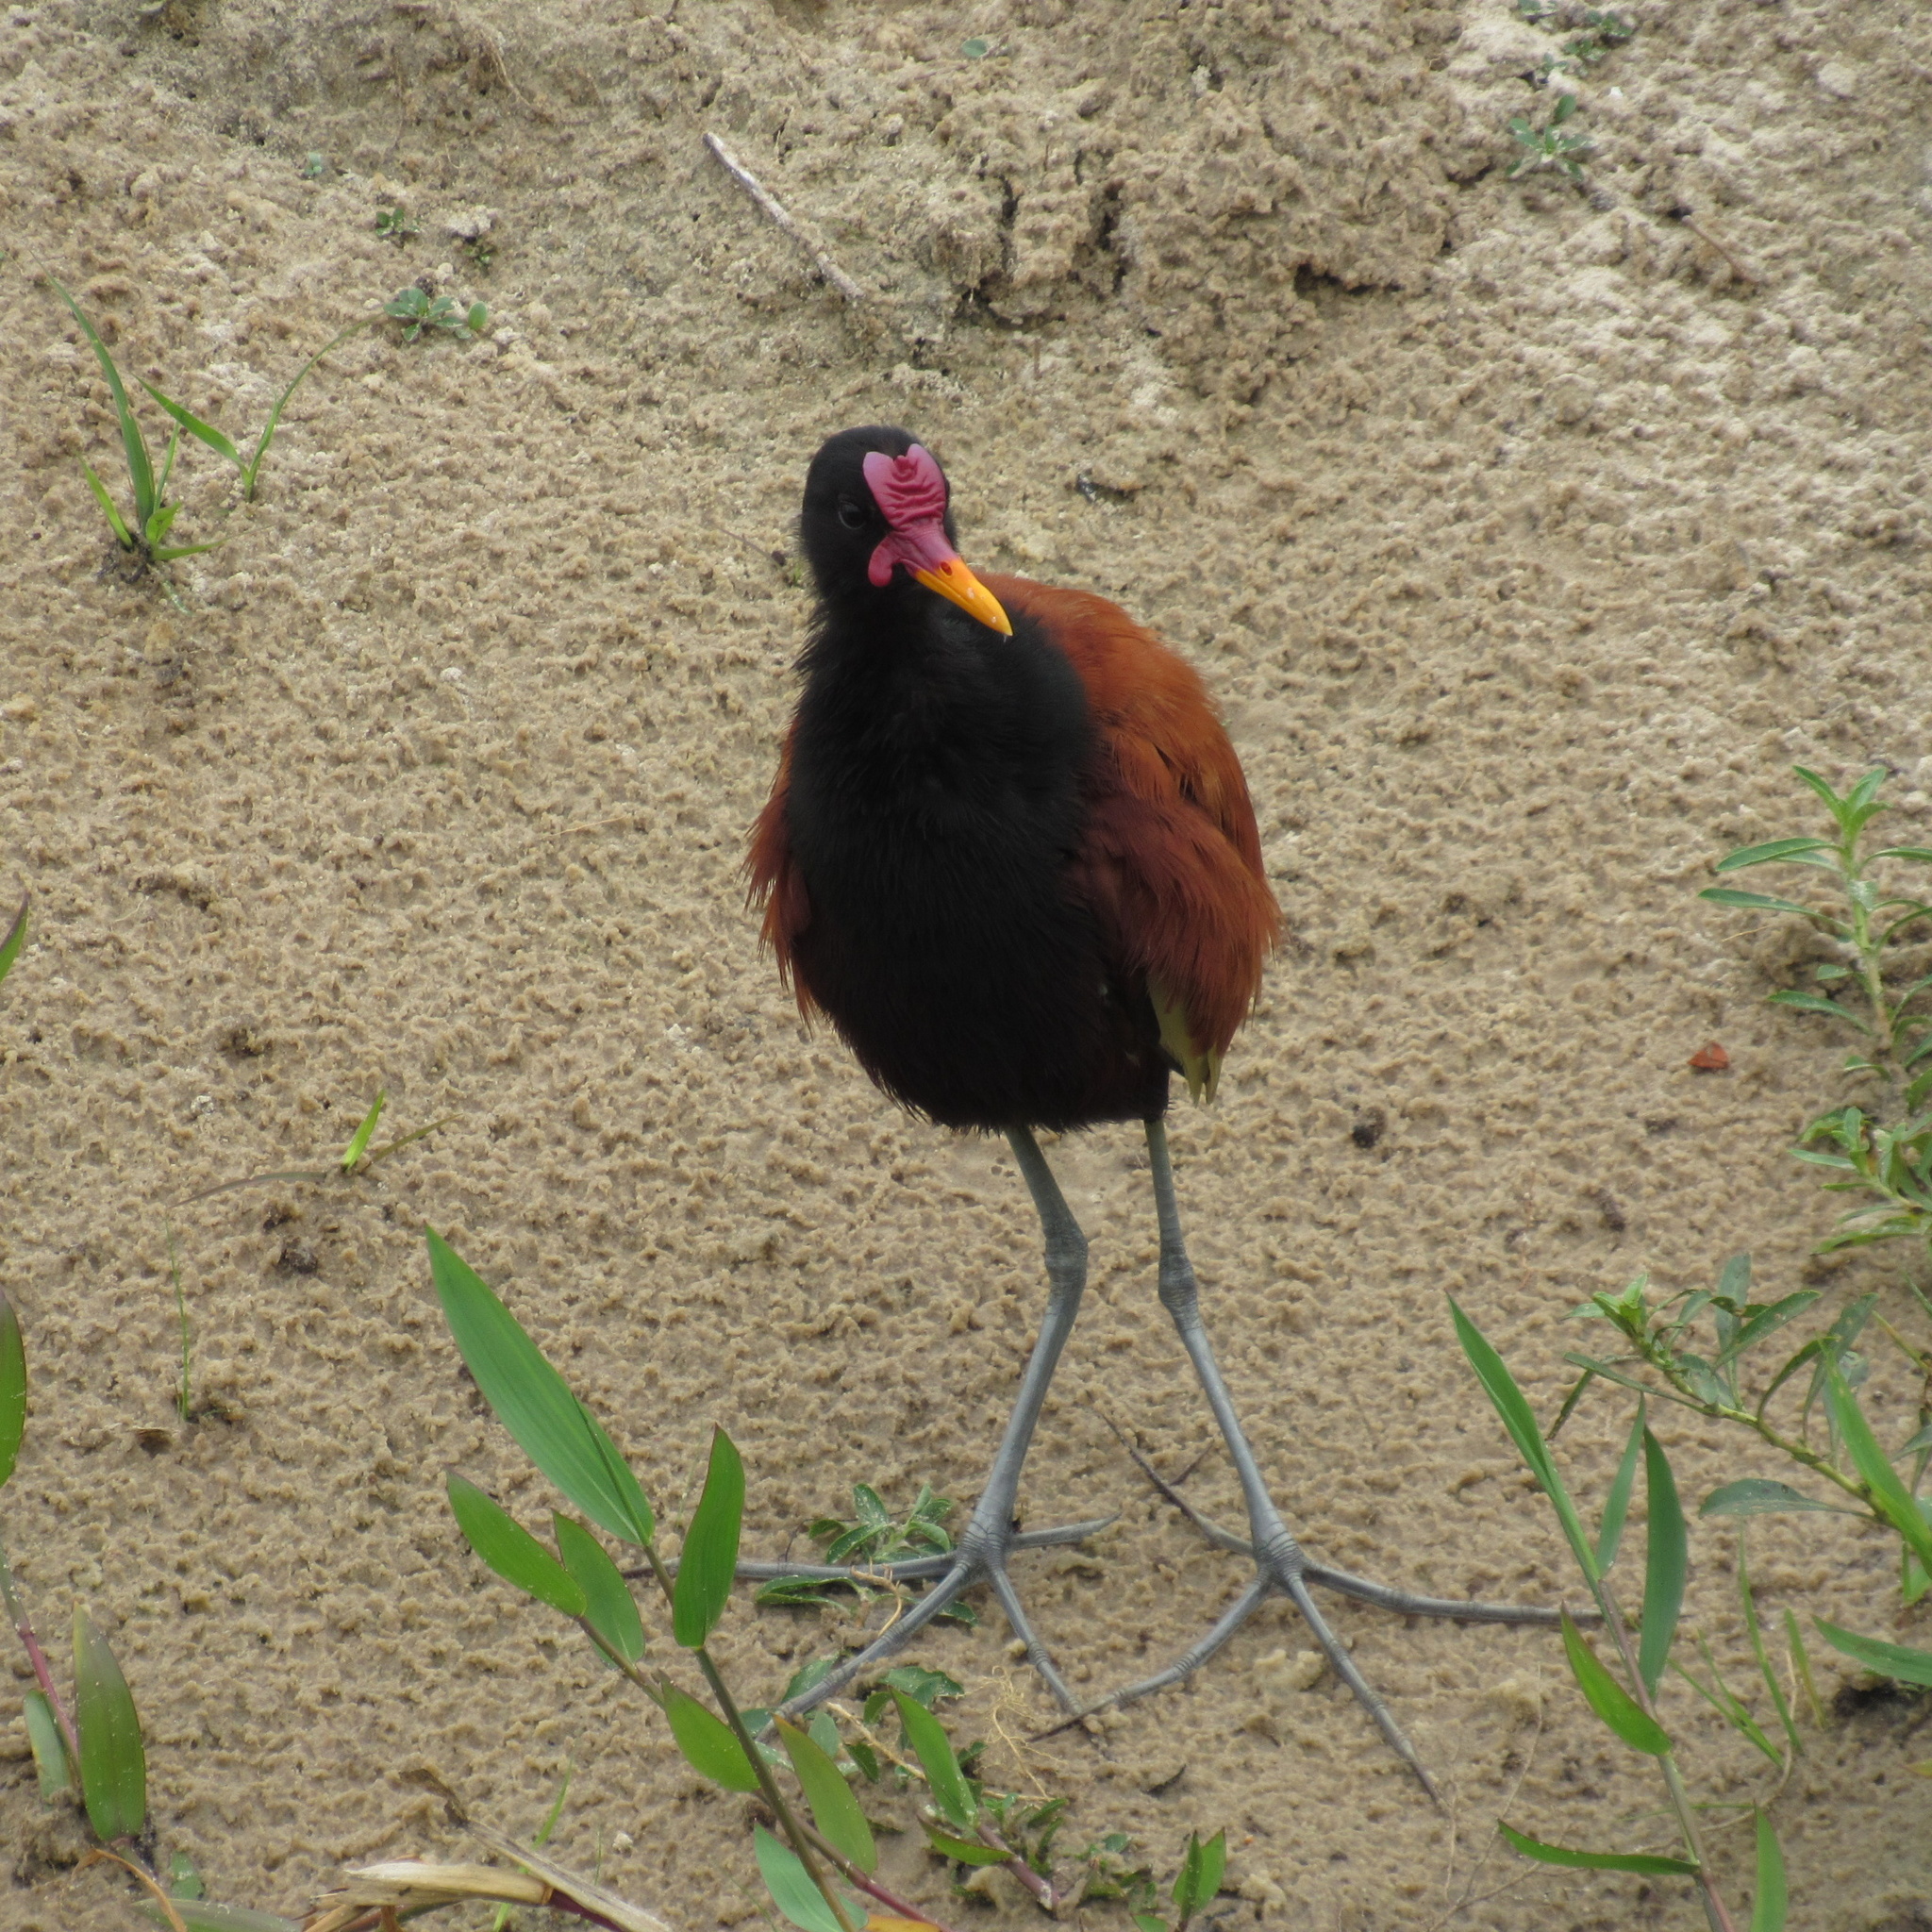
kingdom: Animalia
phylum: Chordata
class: Aves
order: Charadriiformes
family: Jacanidae
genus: Jacana
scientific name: Jacana jacana
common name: Wattled jacana
